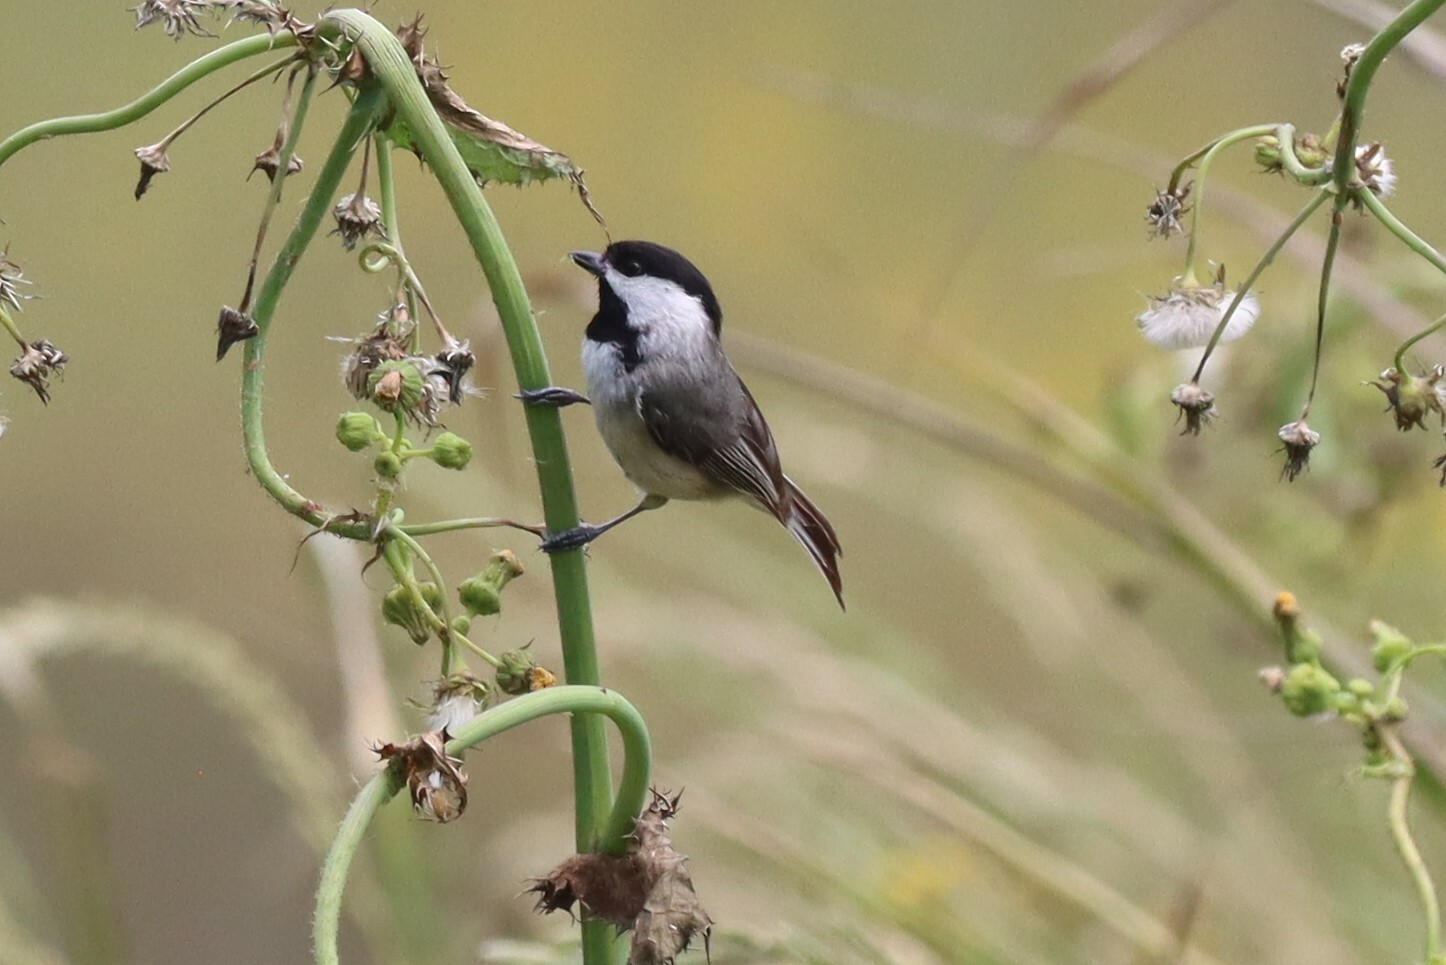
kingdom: Animalia
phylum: Chordata
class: Aves
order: Passeriformes
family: Paridae
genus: Poecile
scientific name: Poecile carolinensis
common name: Carolina chickadee
